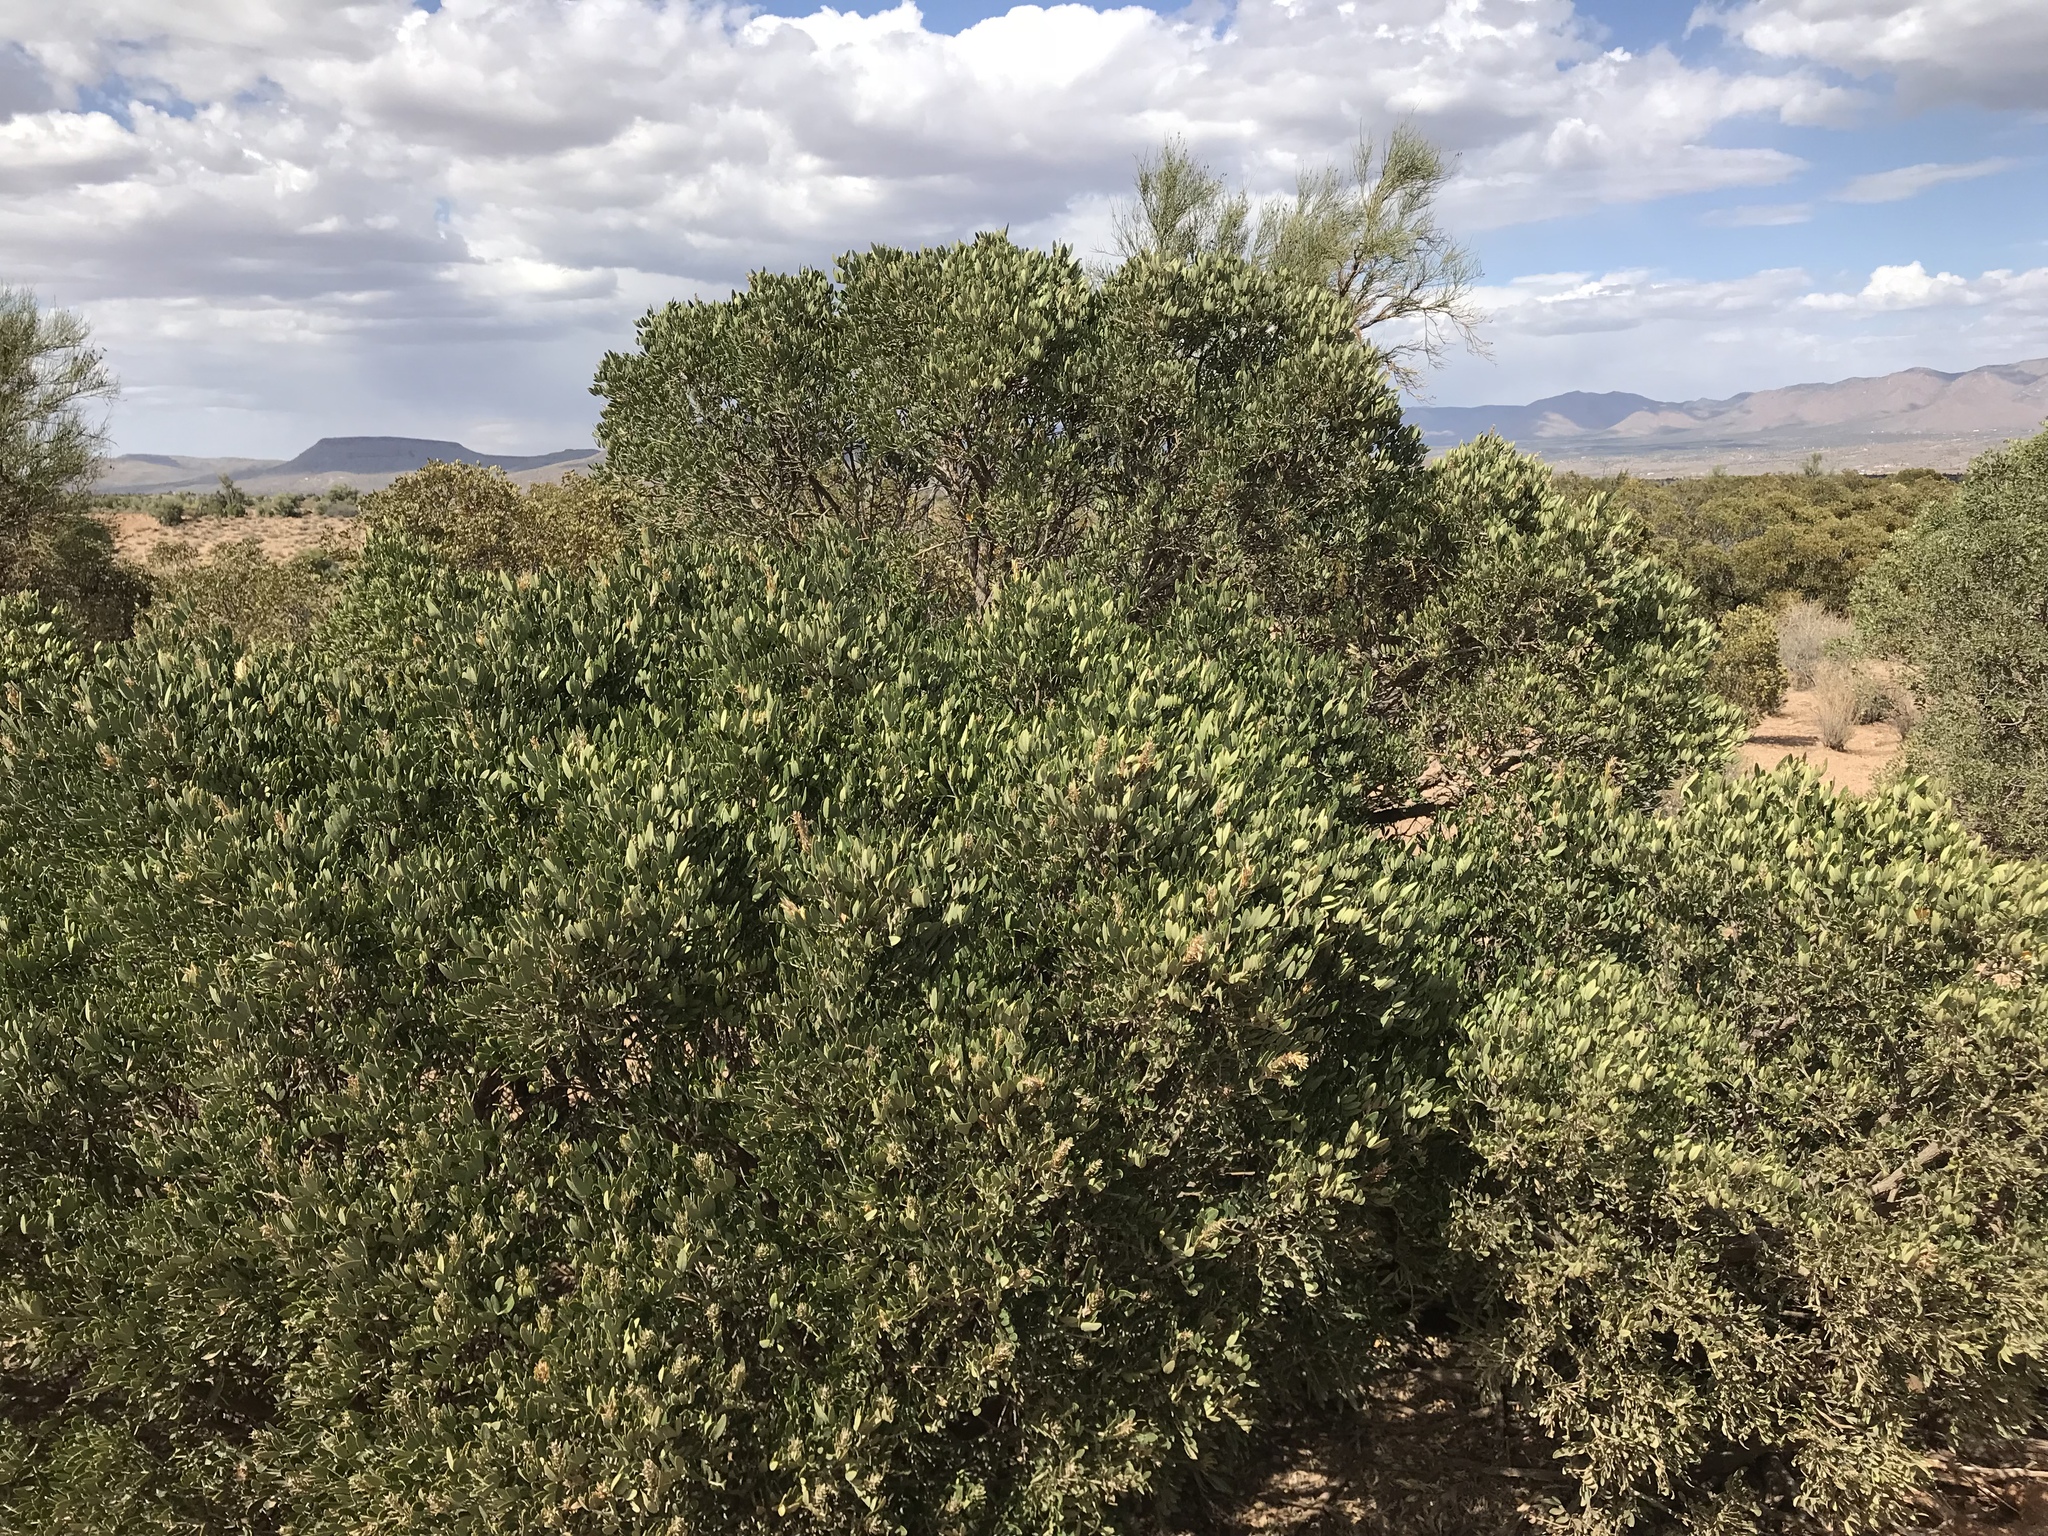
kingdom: Plantae
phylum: Tracheophyta
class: Magnoliopsida
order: Fabales
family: Fabaceae
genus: Dermatophyllum
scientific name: Dermatophyllum arizonicum
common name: Arizona necklace
